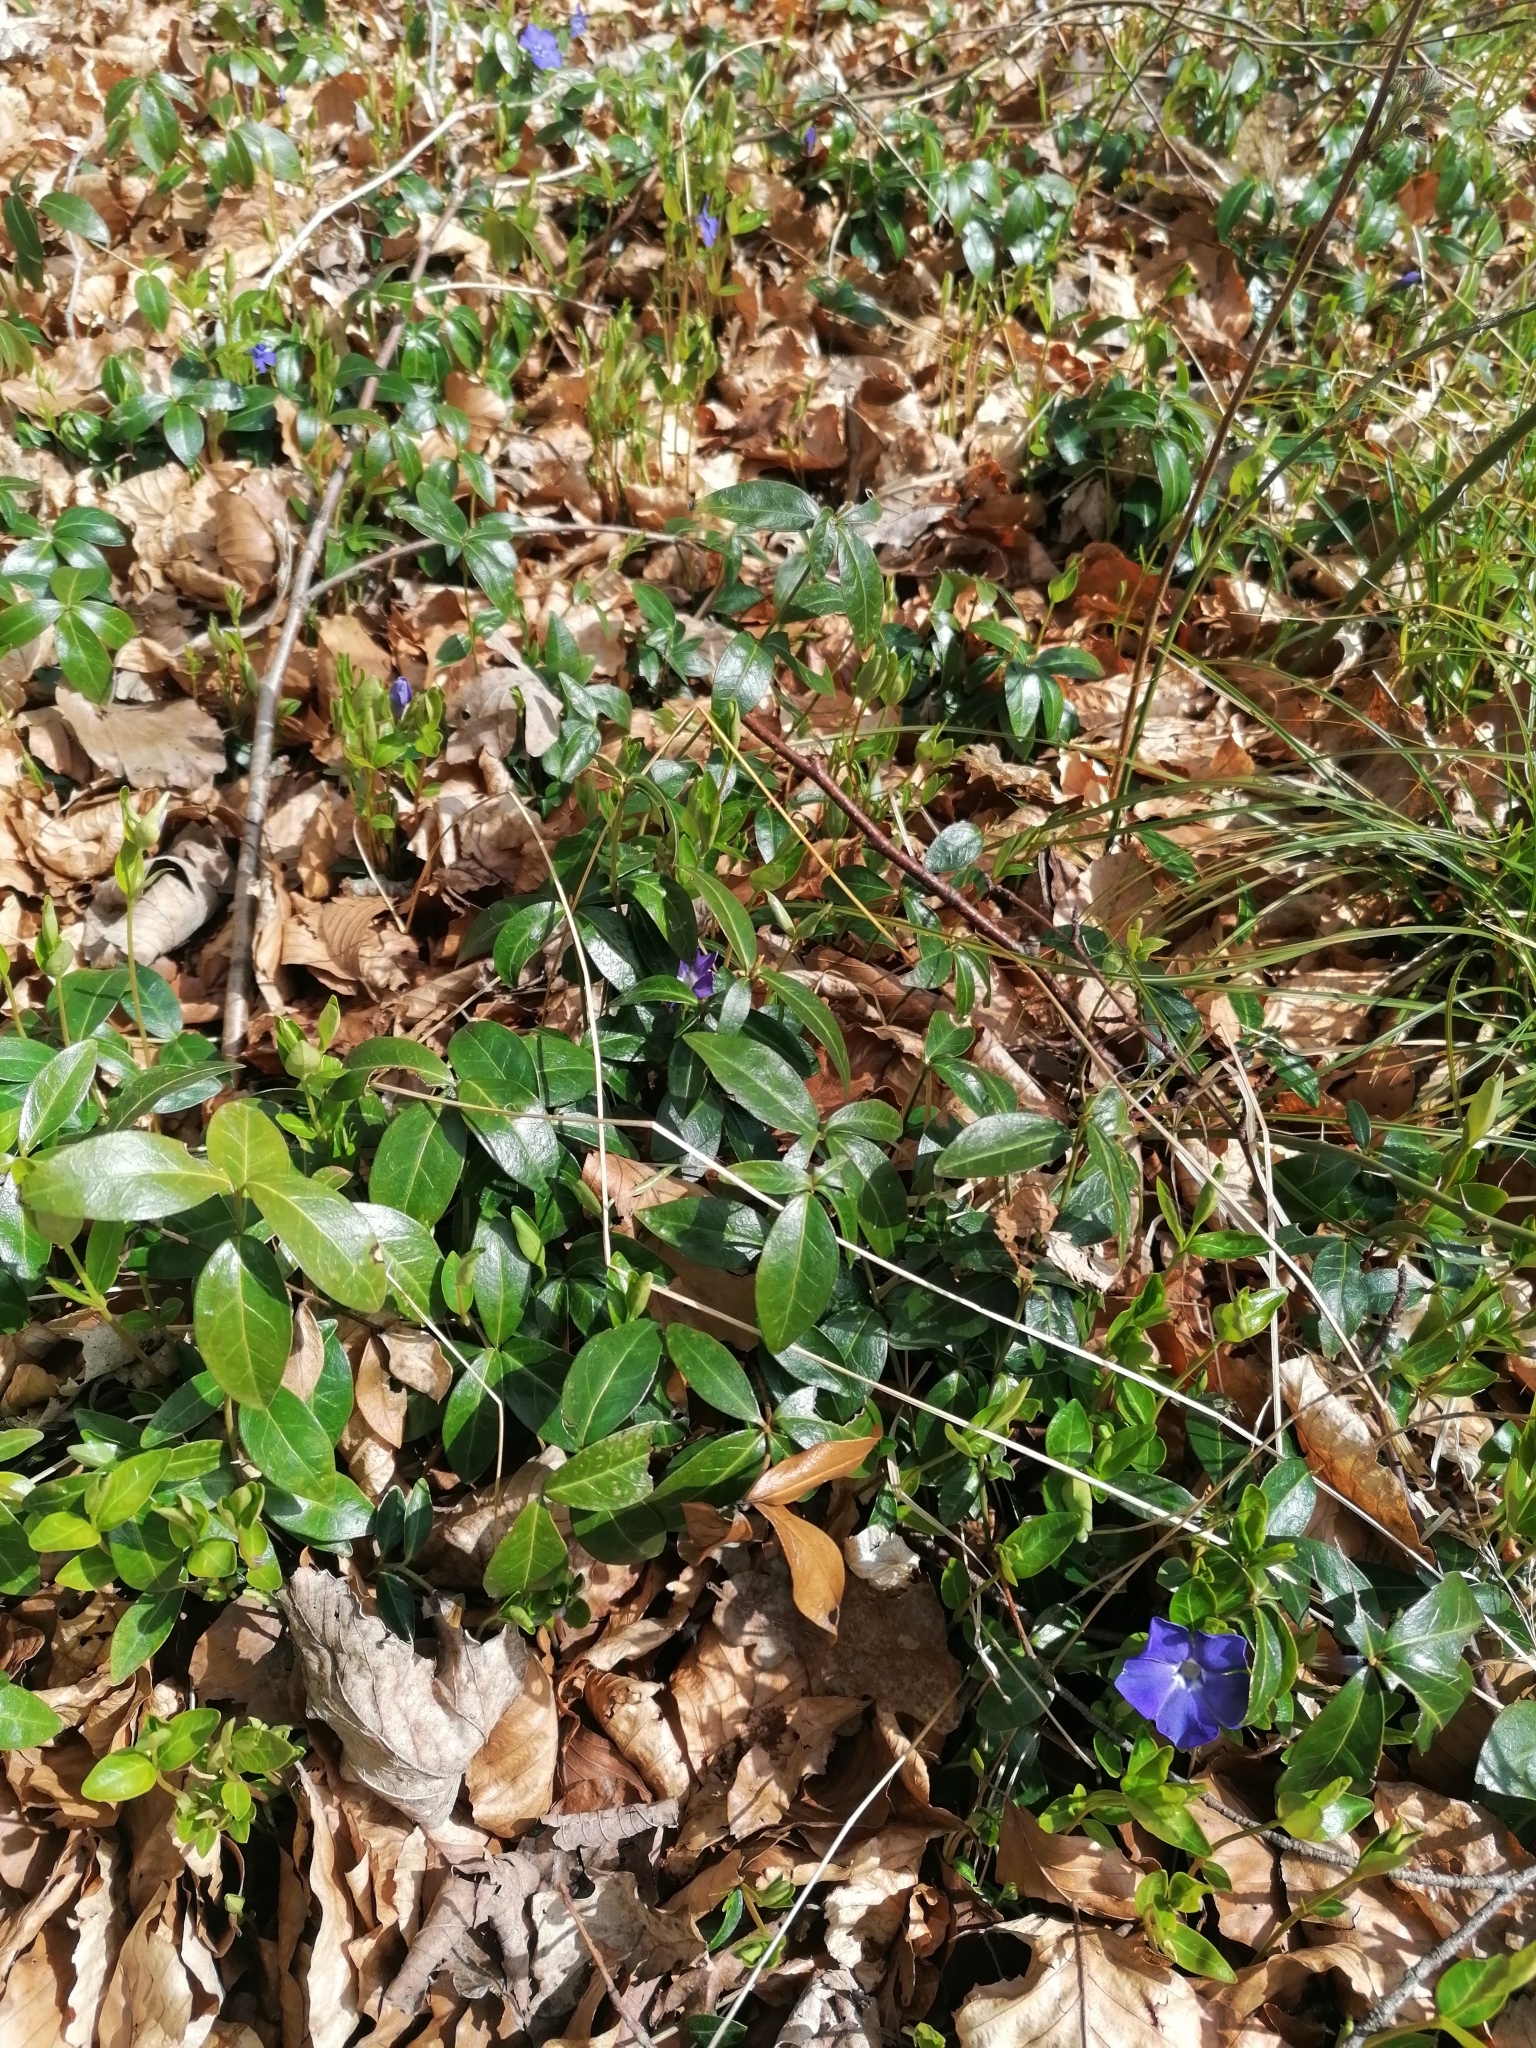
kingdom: Plantae
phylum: Tracheophyta
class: Magnoliopsida
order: Gentianales
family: Apocynaceae
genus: Vinca
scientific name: Vinca minor
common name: Lesser periwinkle
